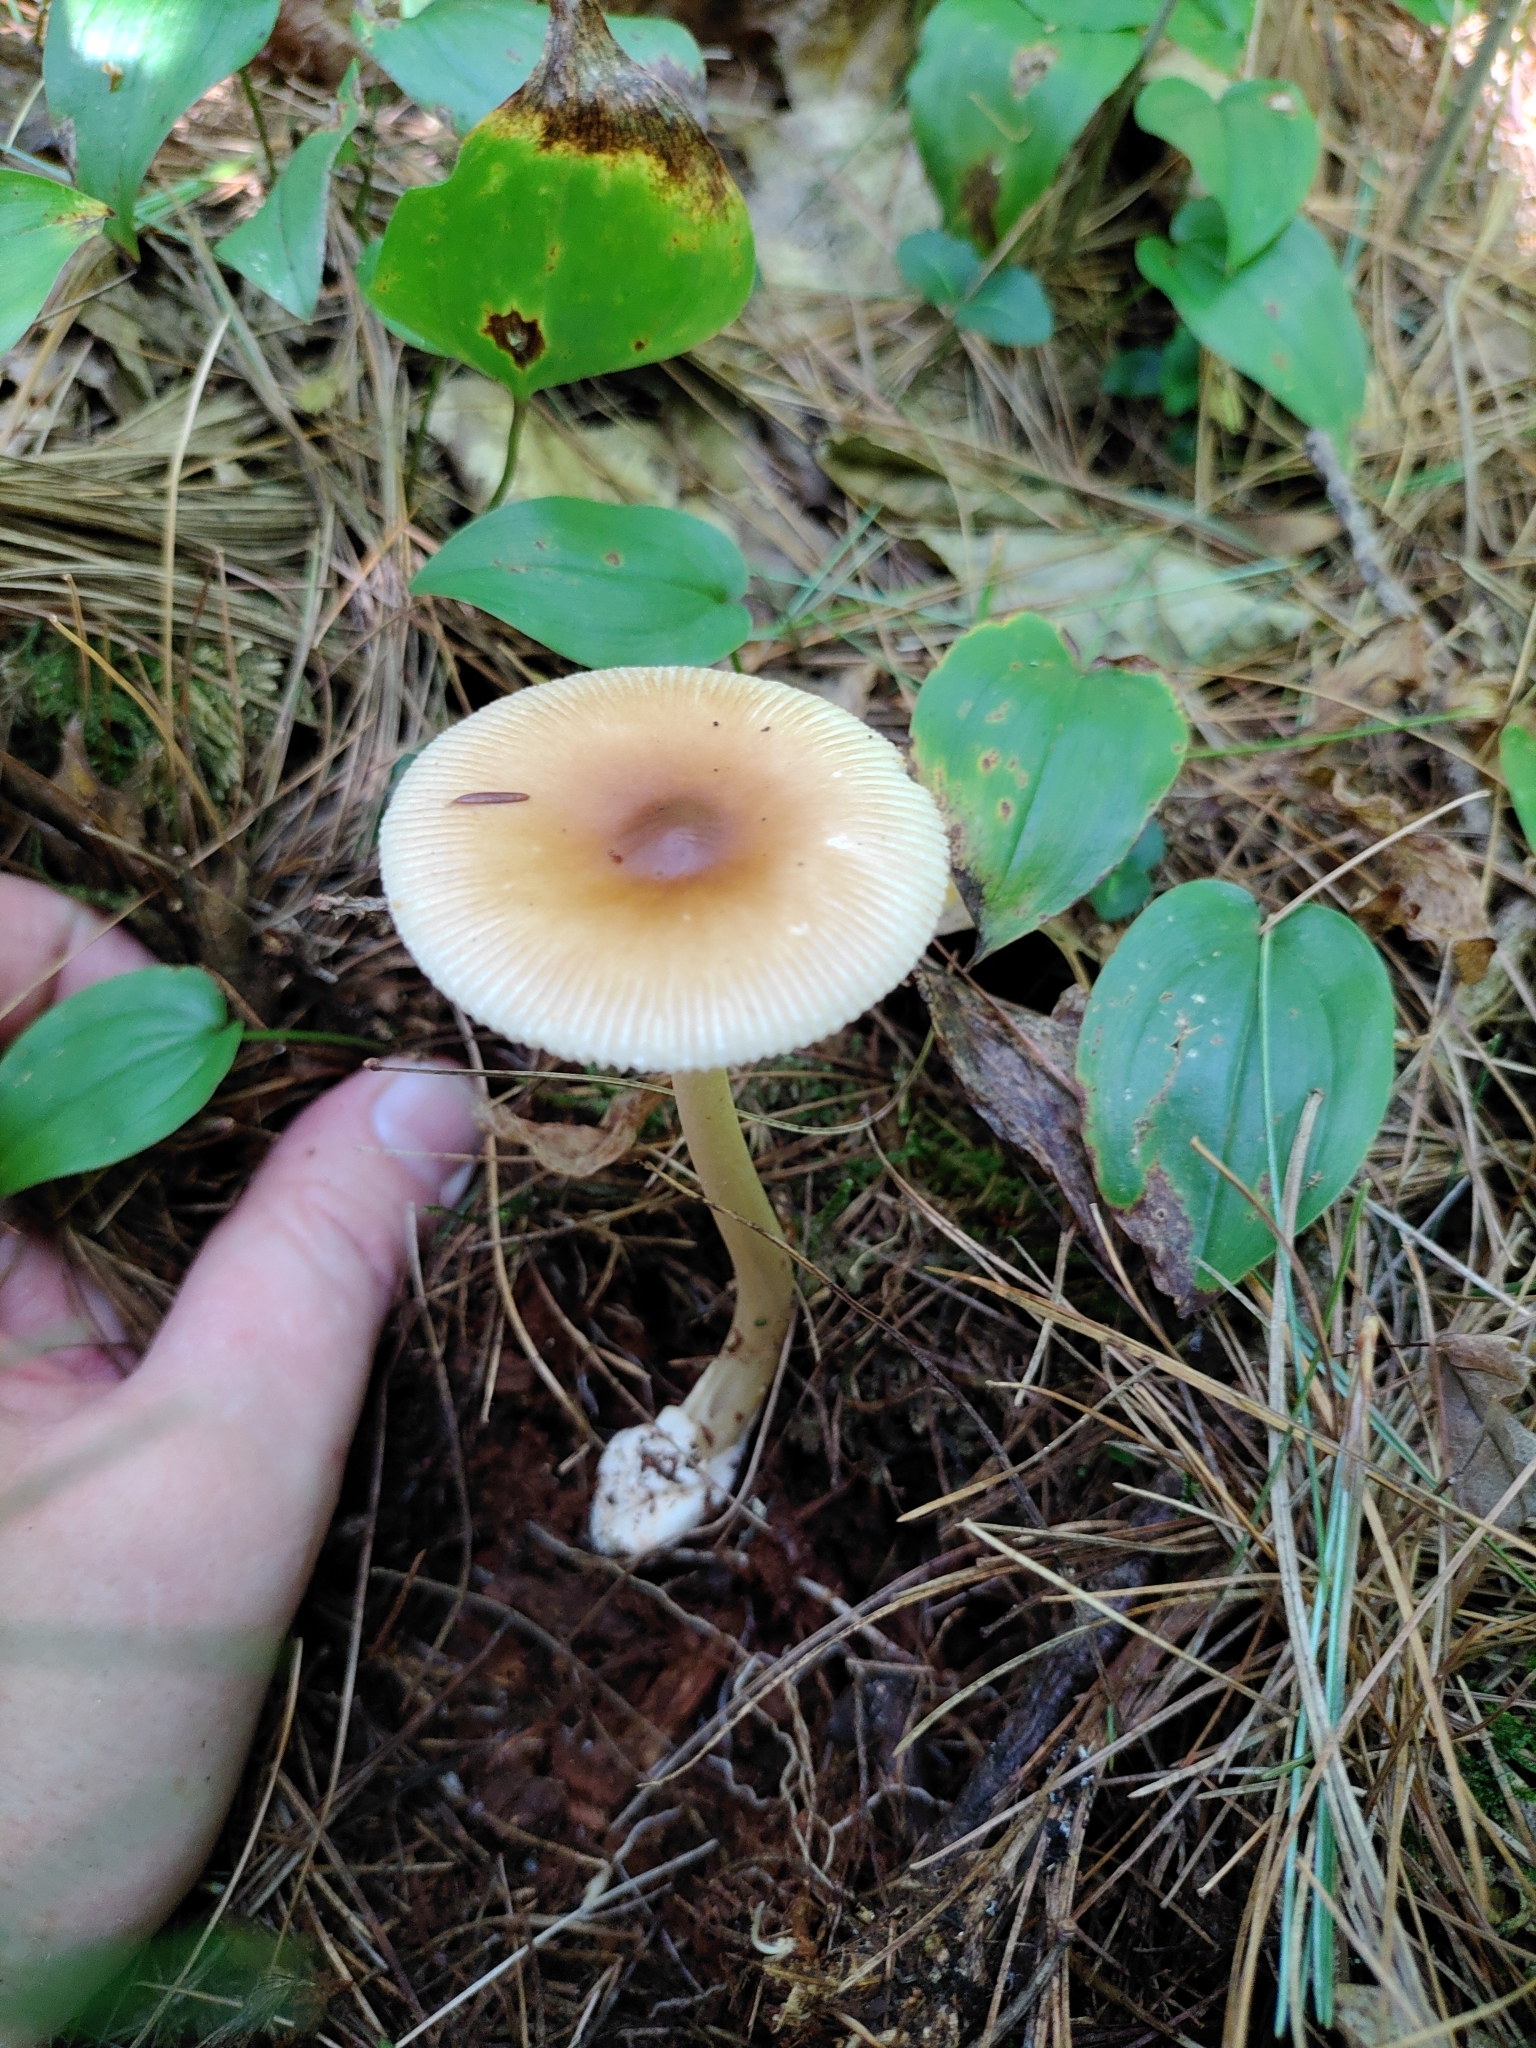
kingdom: Fungi
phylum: Basidiomycota
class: Agaricomycetes
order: Agaricales
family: Amanitaceae
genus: Amanita
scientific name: Amanita fulva
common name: Tawny grisette
